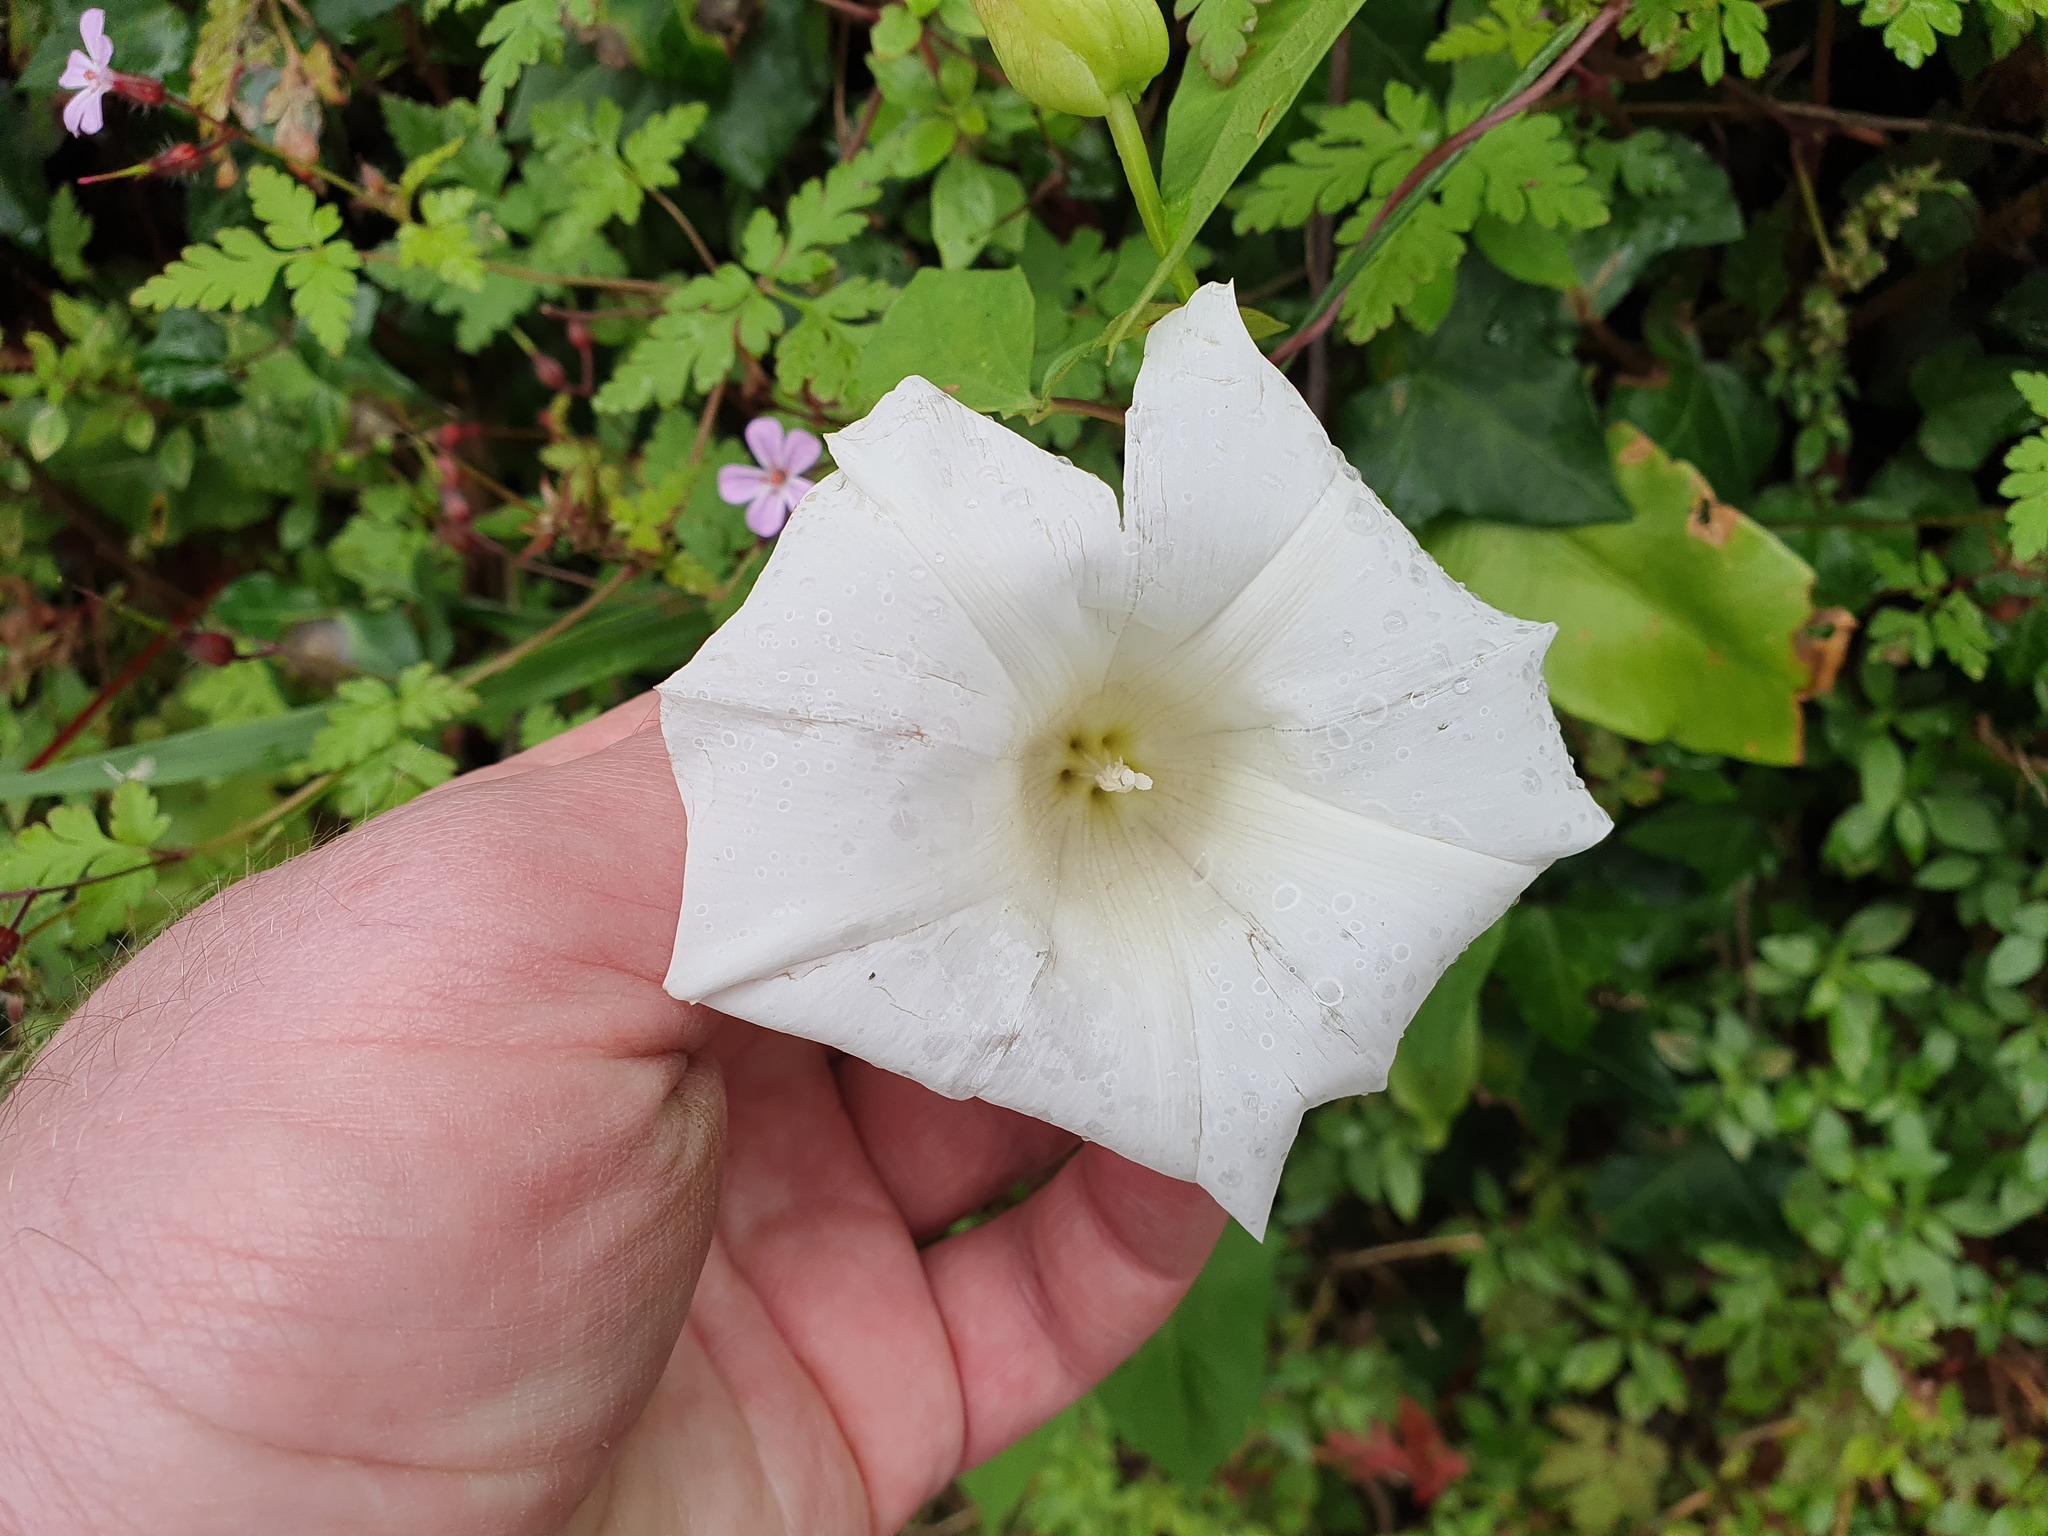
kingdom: Plantae
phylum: Tracheophyta
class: Magnoliopsida
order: Solanales
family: Convolvulaceae
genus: Calystegia
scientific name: Calystegia silvatica
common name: Large bindweed
